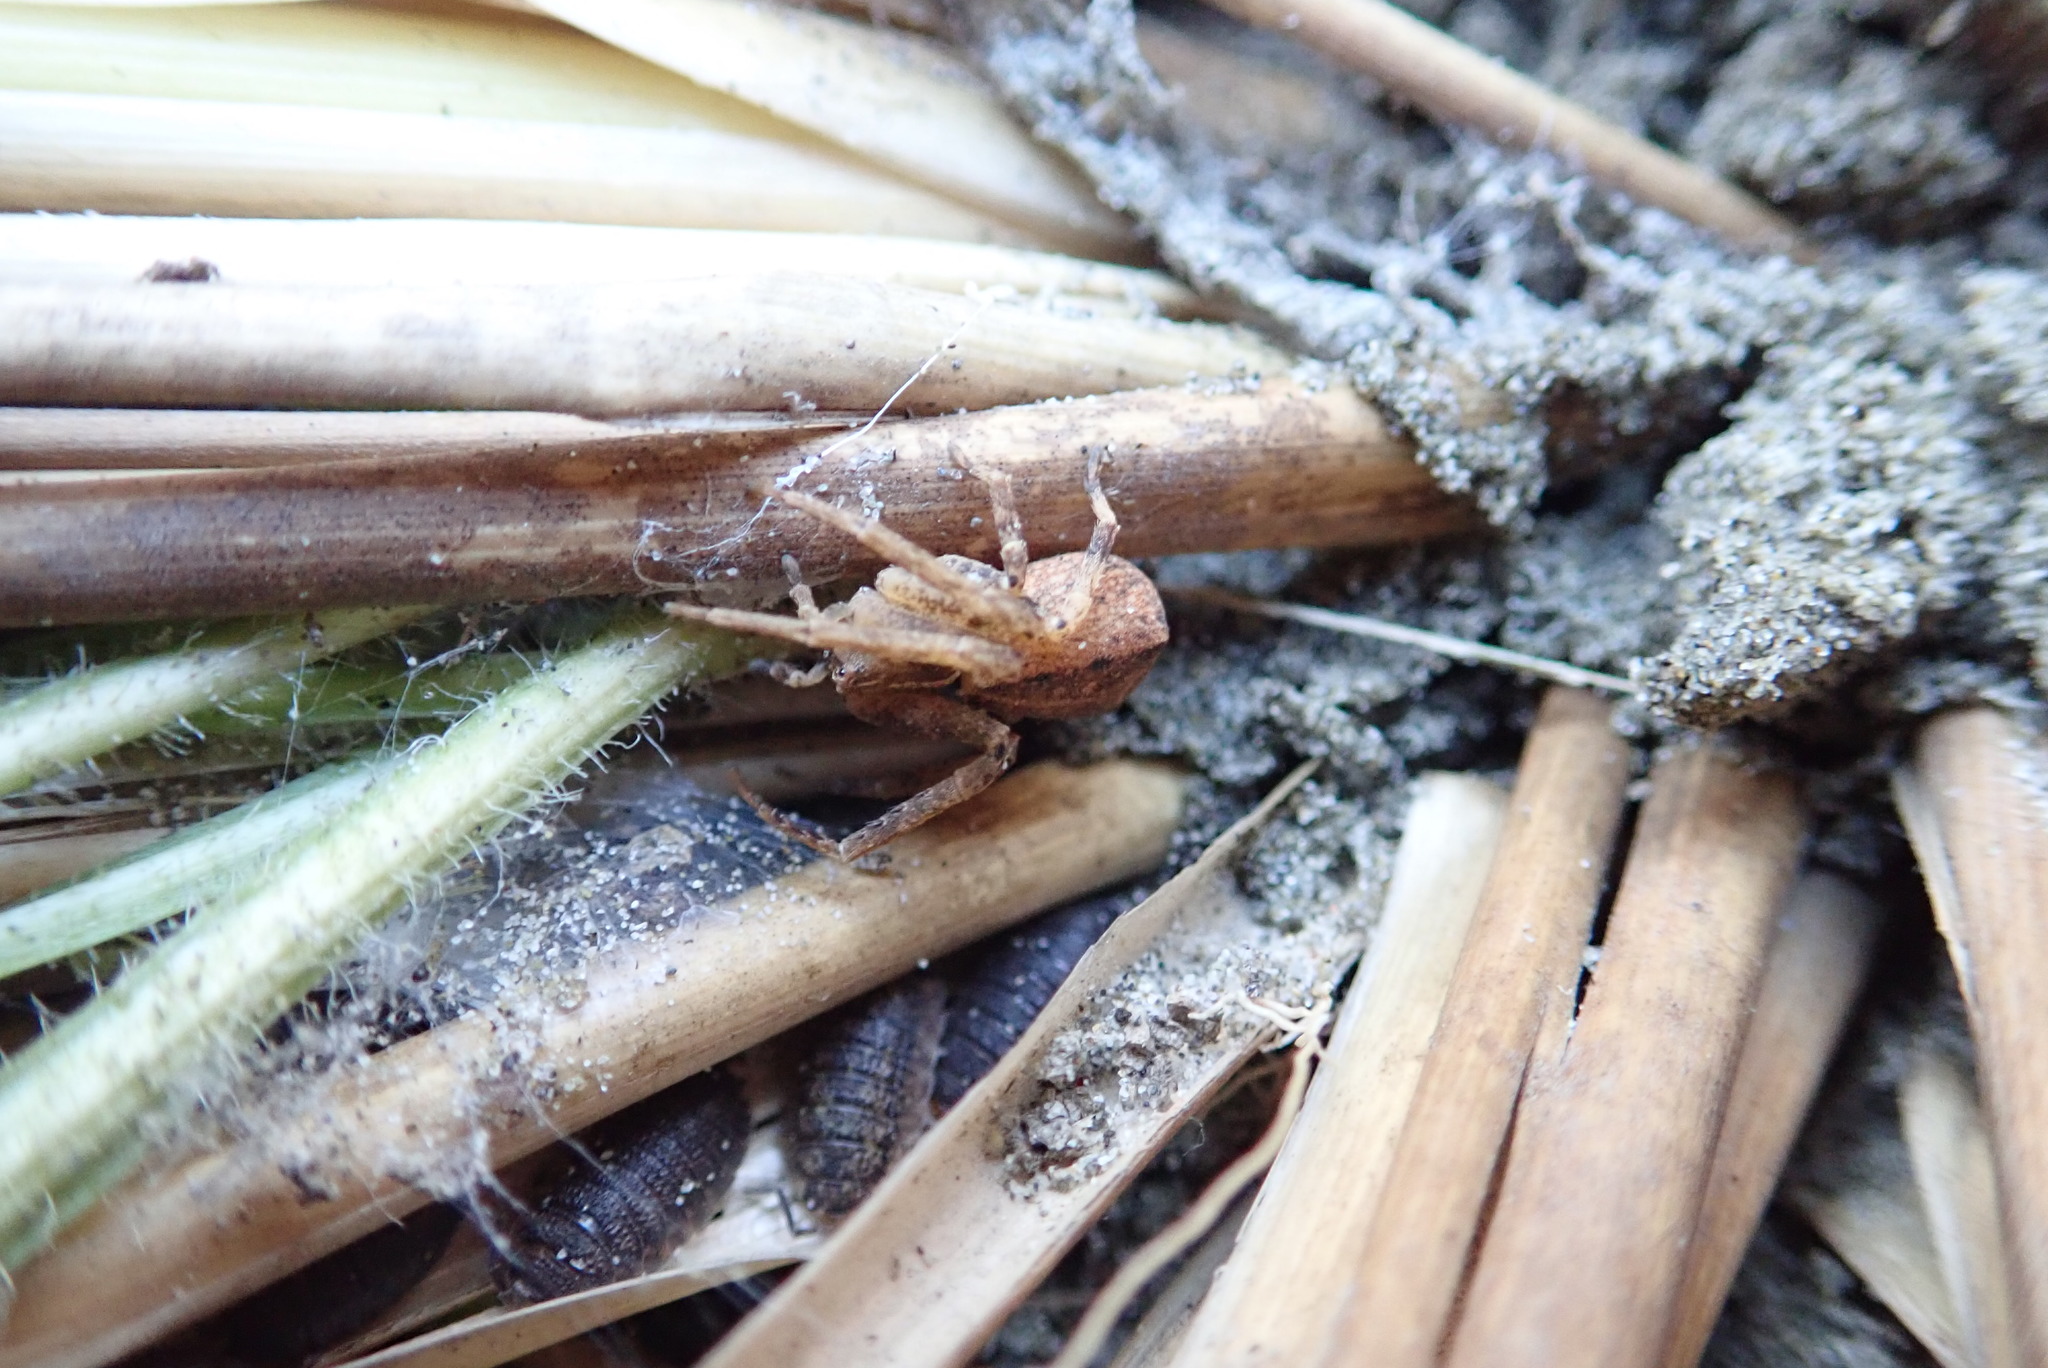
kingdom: Animalia
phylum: Arthropoda
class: Arachnida
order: Araneae
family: Thomisidae
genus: Sidymella
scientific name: Sidymella trapezia
